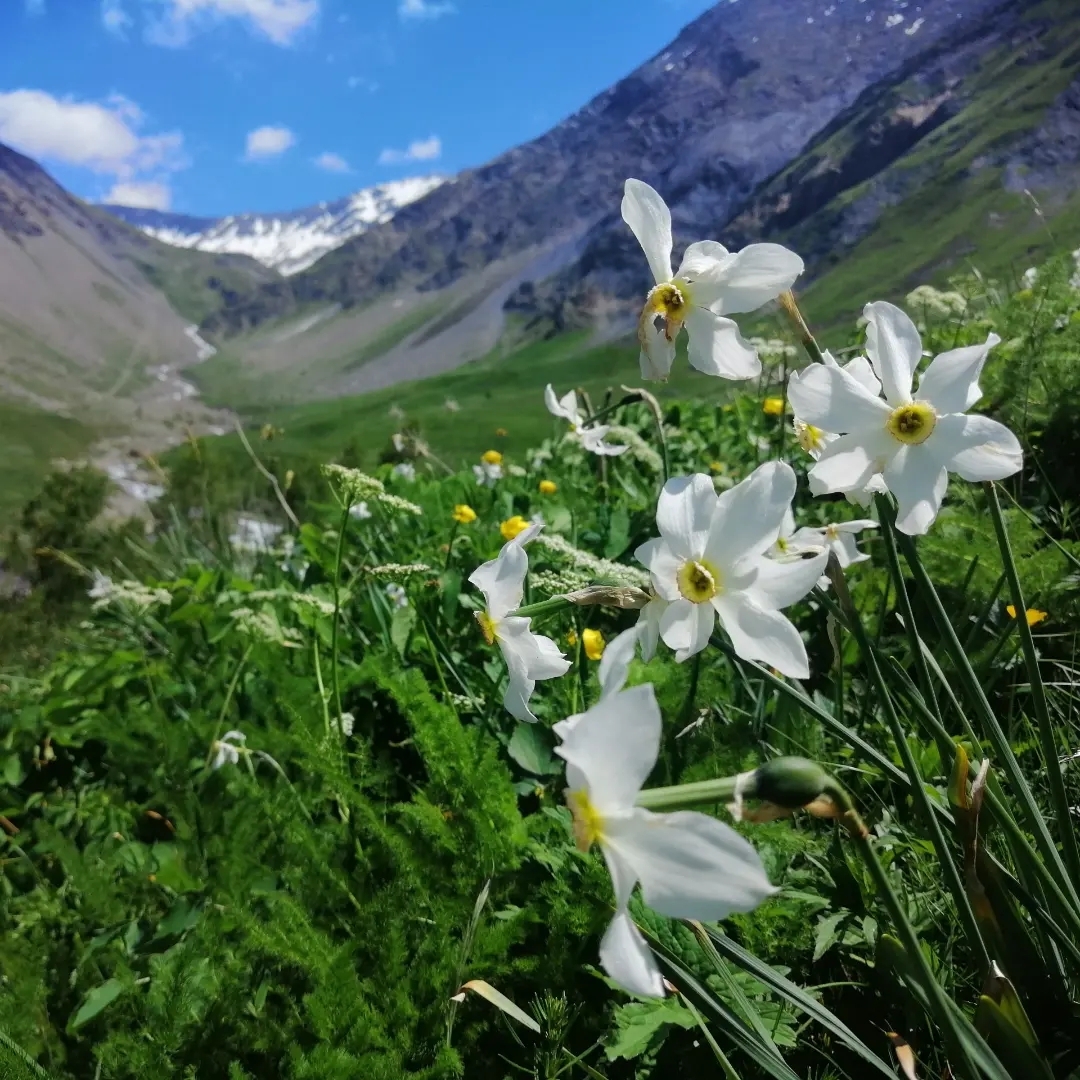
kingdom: Plantae
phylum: Tracheophyta
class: Liliopsida
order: Asparagales
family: Amaryllidaceae
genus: Narcissus
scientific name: Narcissus poeticus
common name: Pheasant's-eye daffodil
